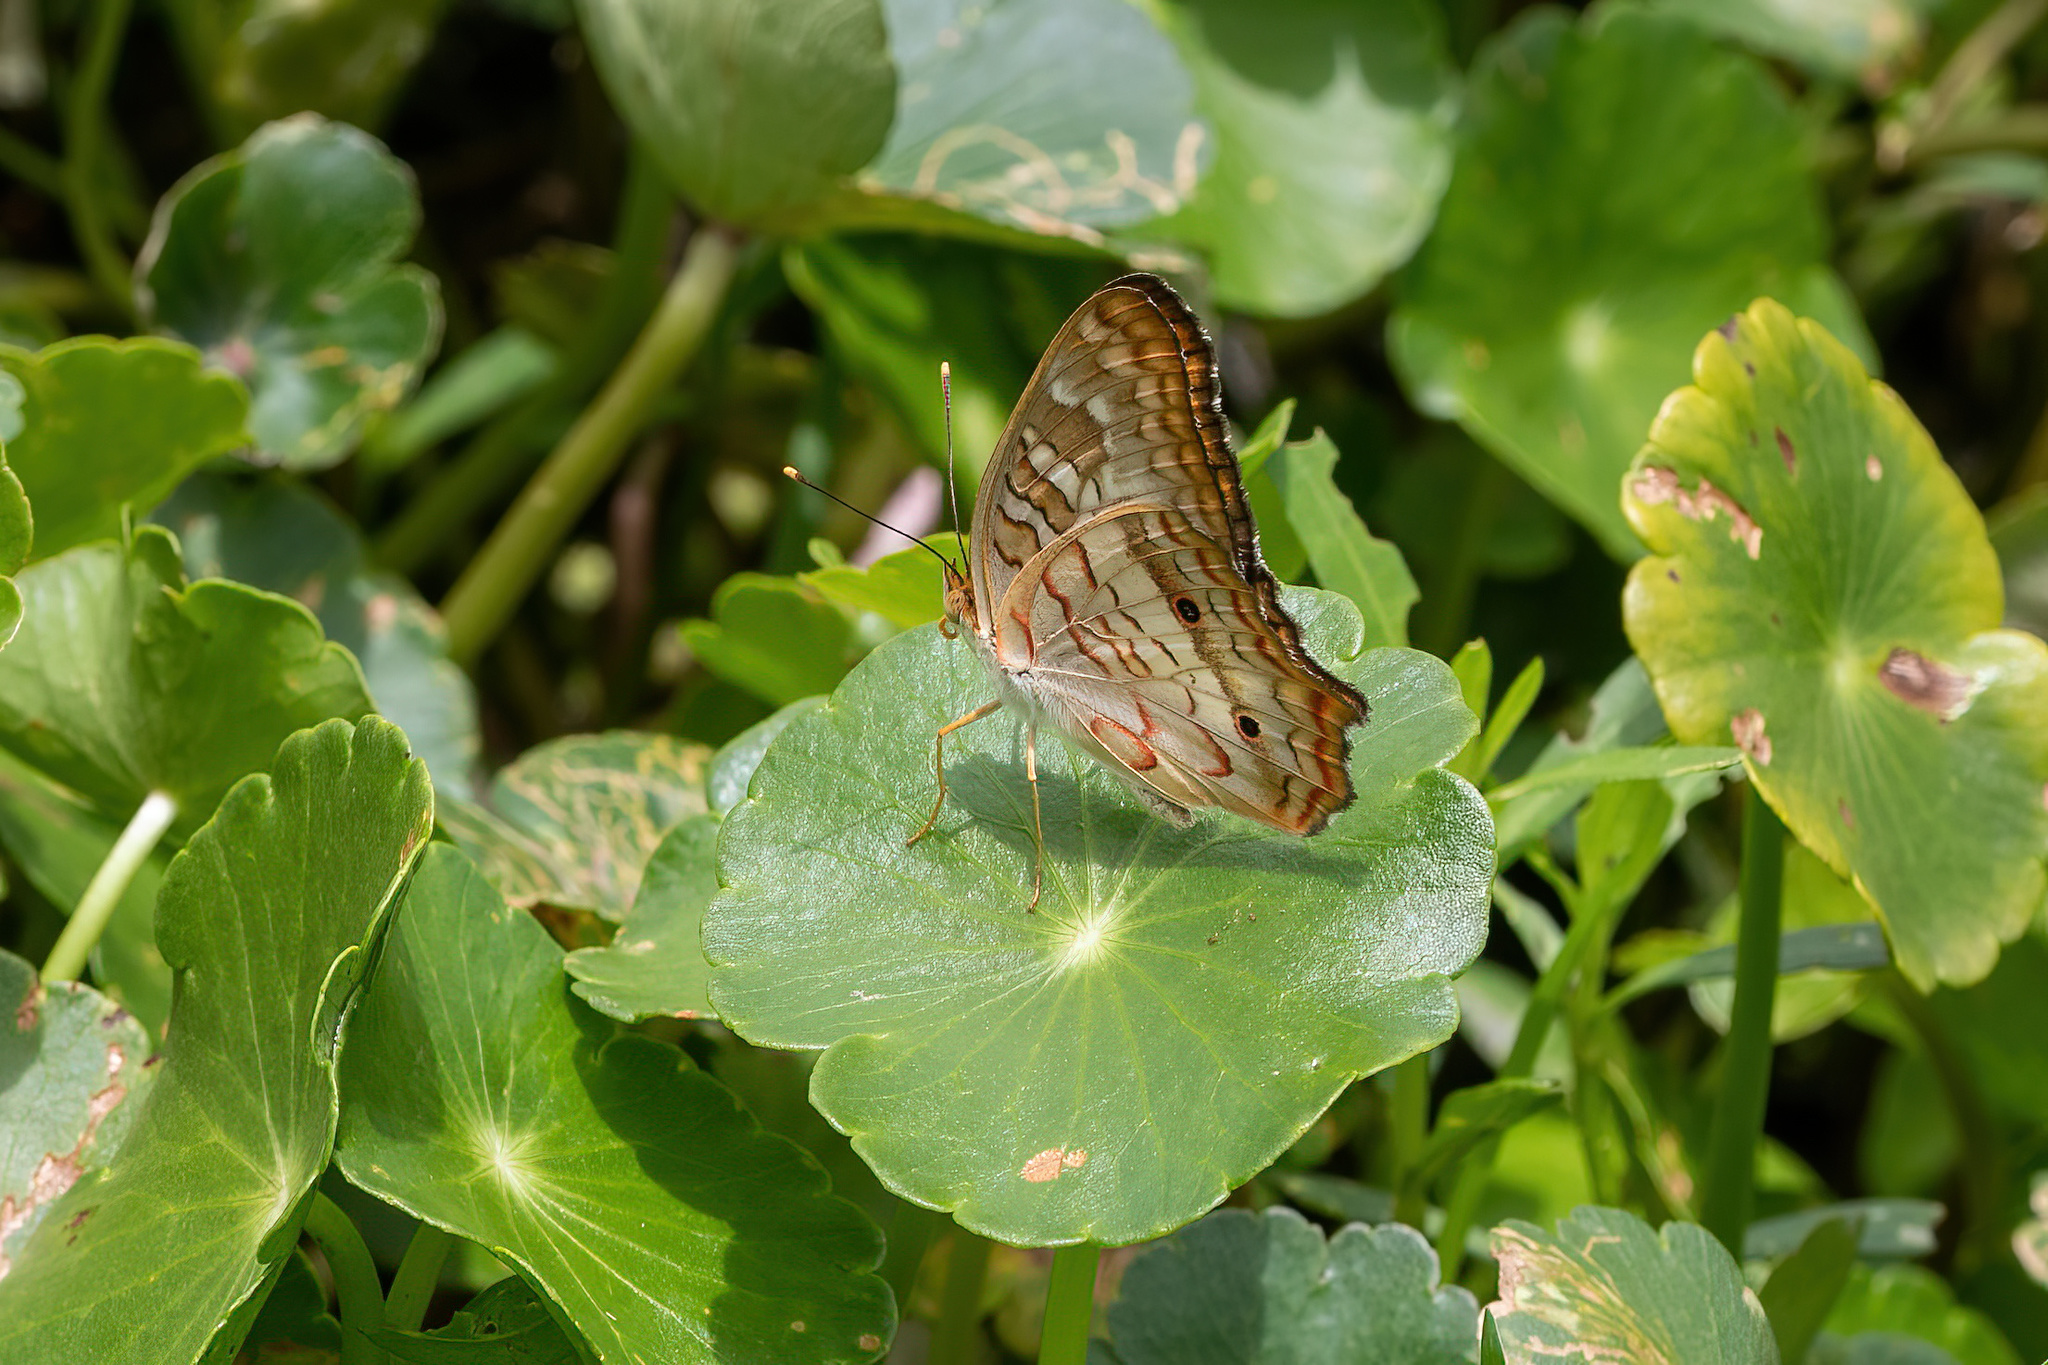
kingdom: Animalia
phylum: Arthropoda
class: Insecta
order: Lepidoptera
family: Nymphalidae
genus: Anartia
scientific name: Anartia jatrophae
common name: White peacock
